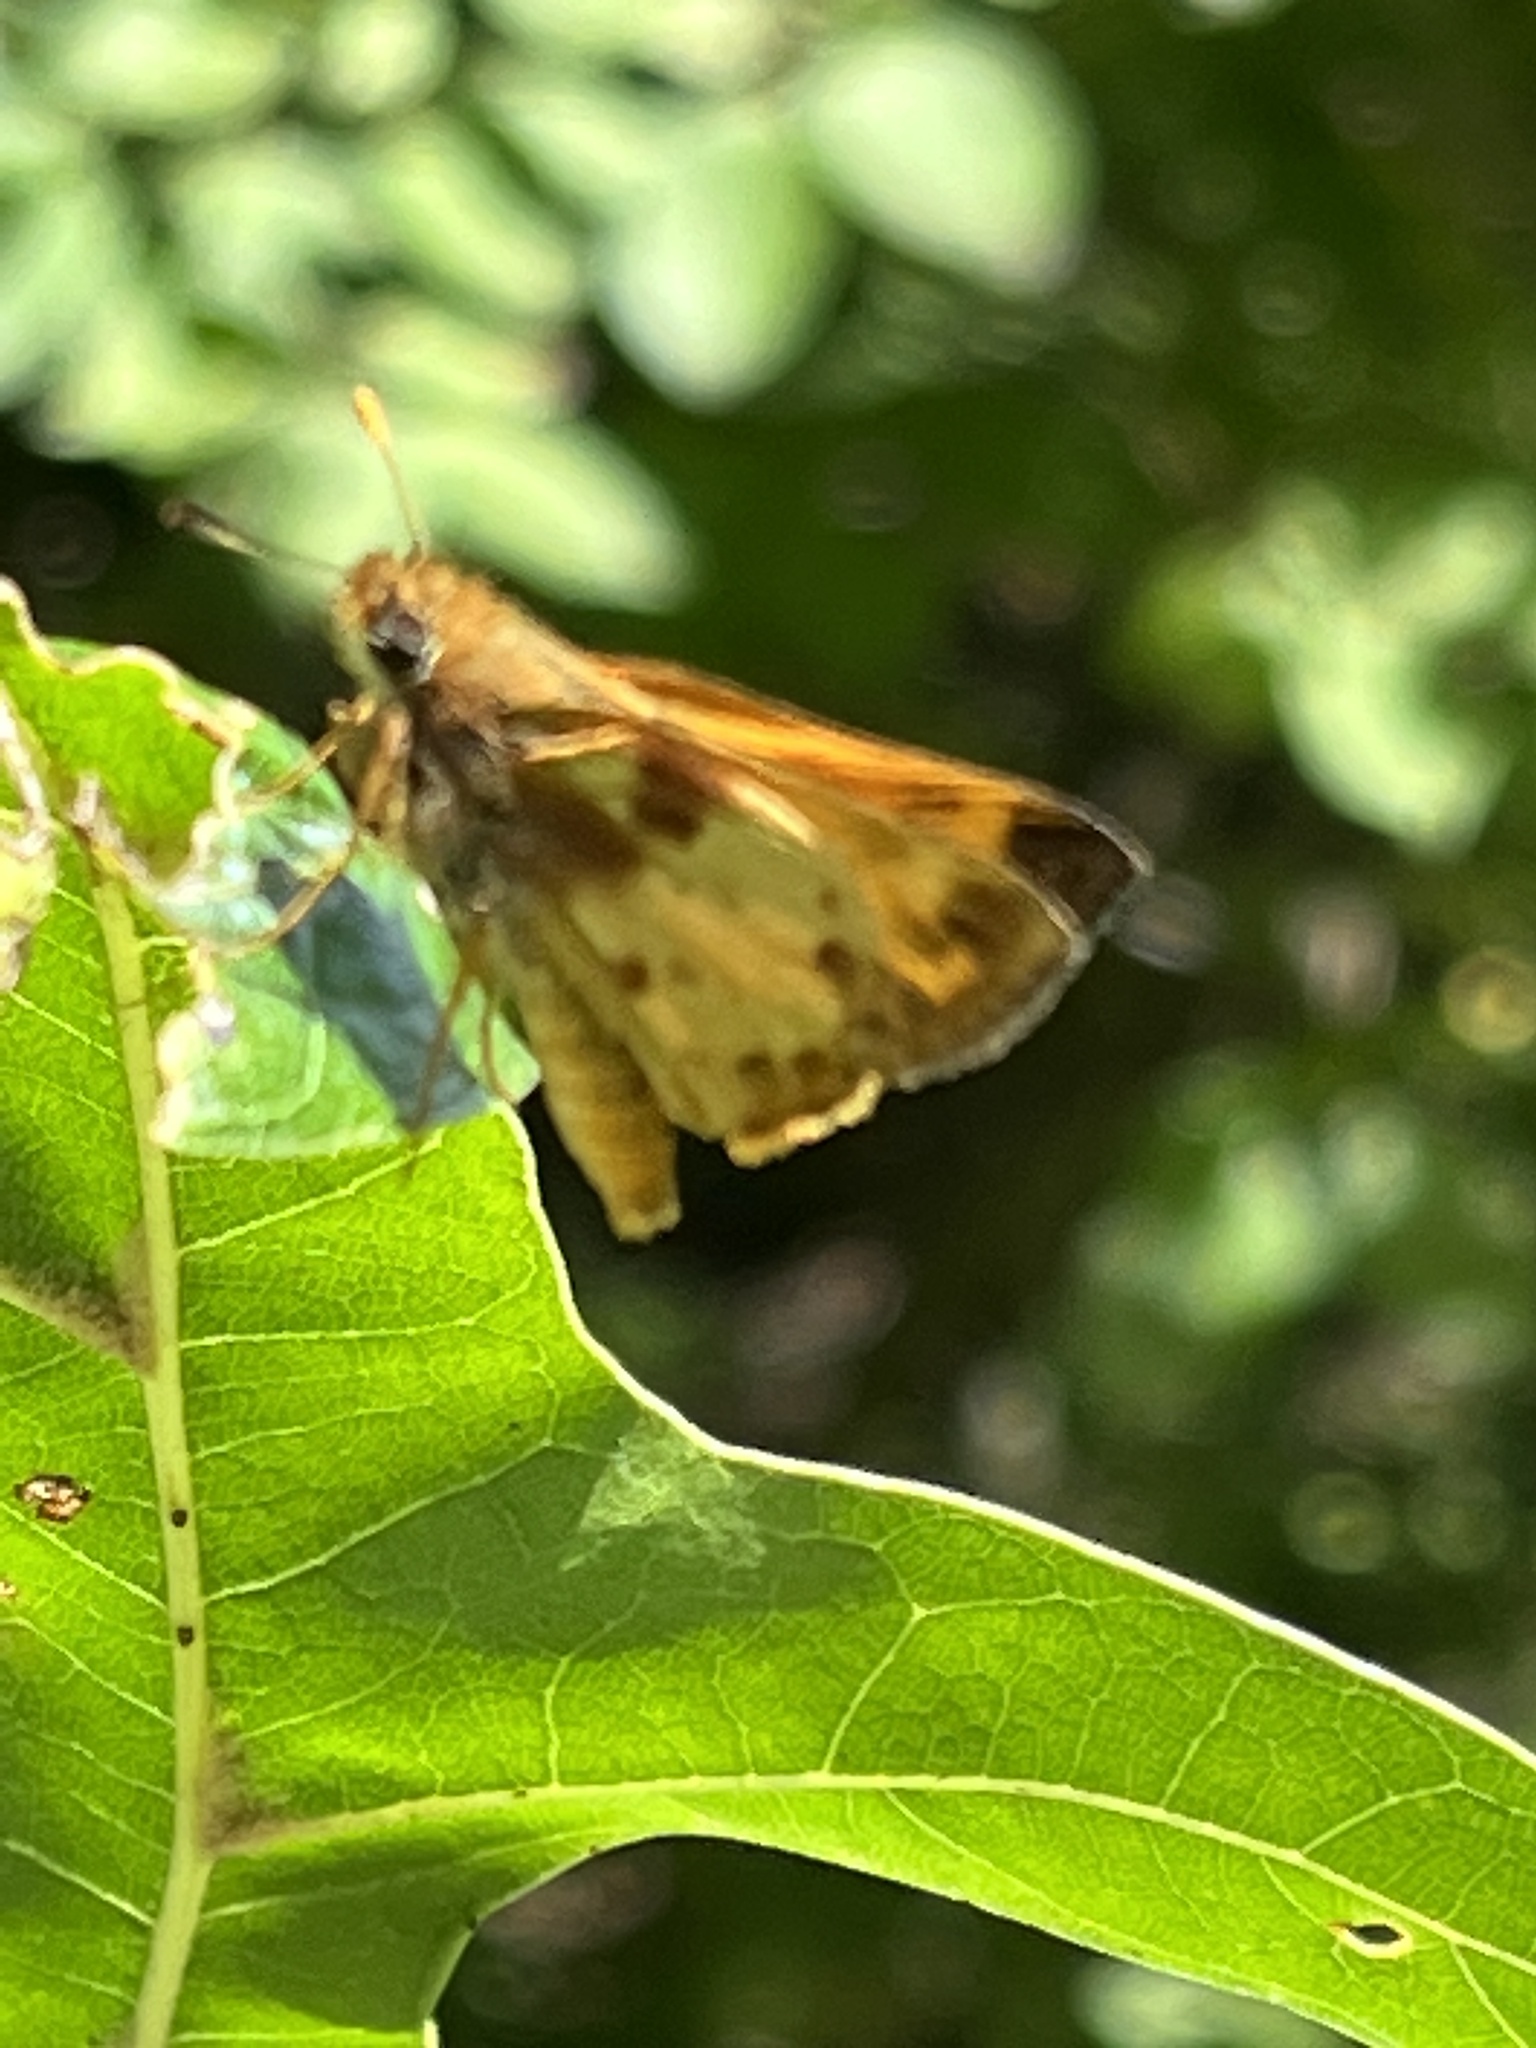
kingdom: Animalia
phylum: Arthropoda
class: Insecta
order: Lepidoptera
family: Hesperiidae
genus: Lon
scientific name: Lon zabulon
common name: Zabulon skipper
